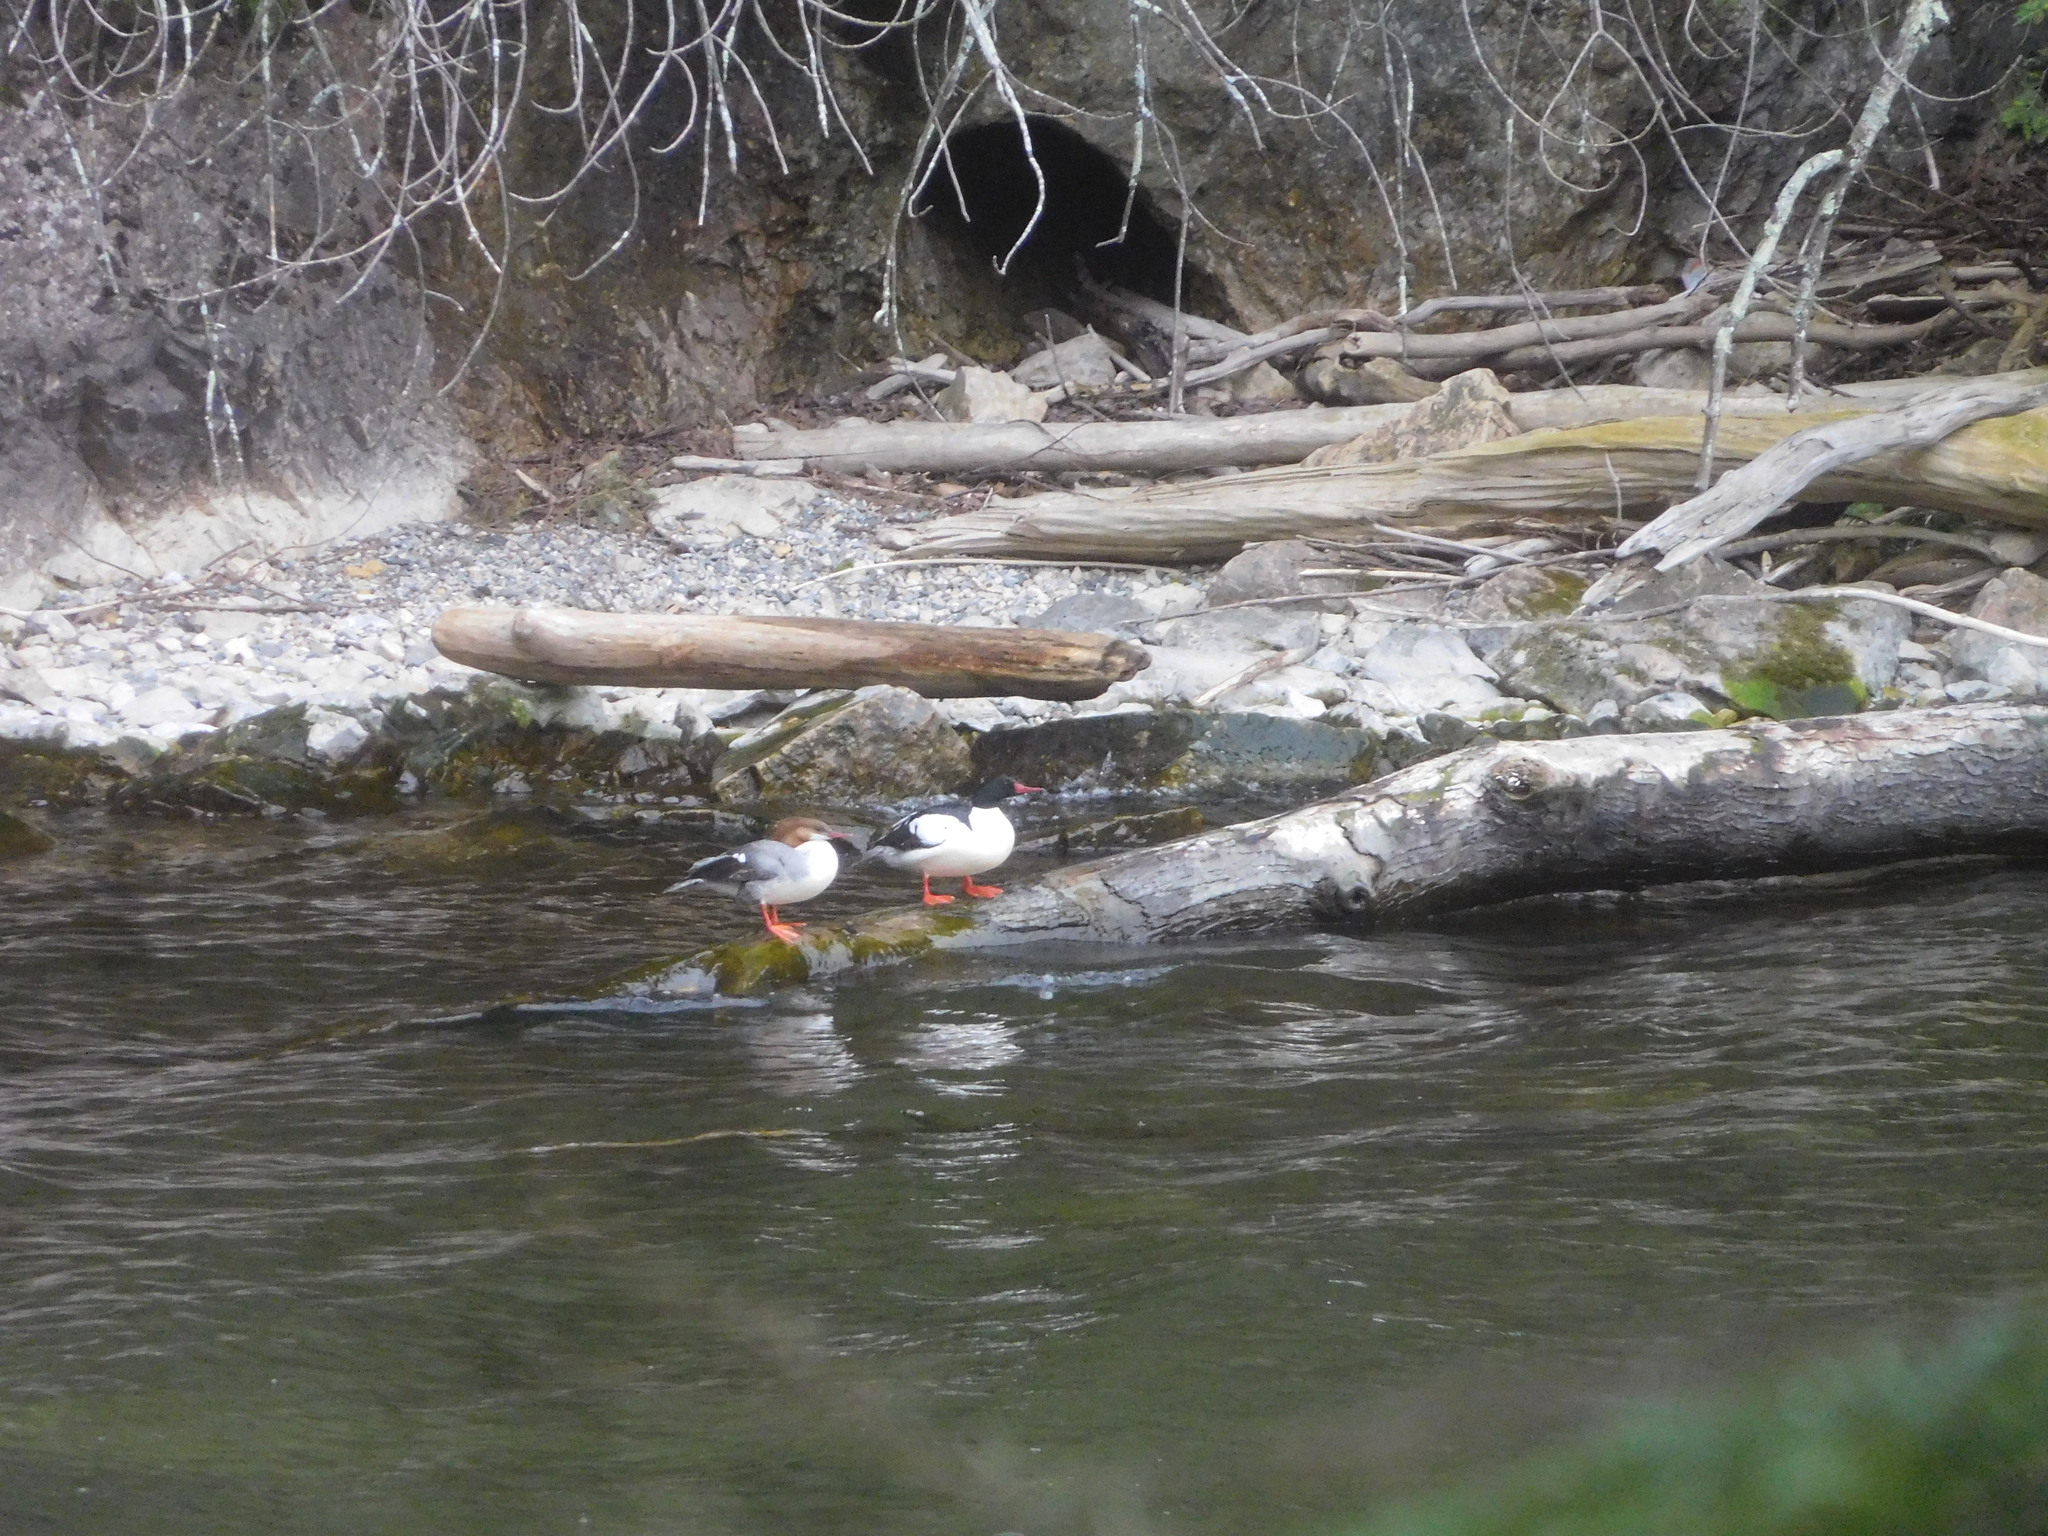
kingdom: Animalia
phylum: Chordata
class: Aves
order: Anseriformes
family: Anatidae
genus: Mergus
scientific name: Mergus merganser
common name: Common merganser
